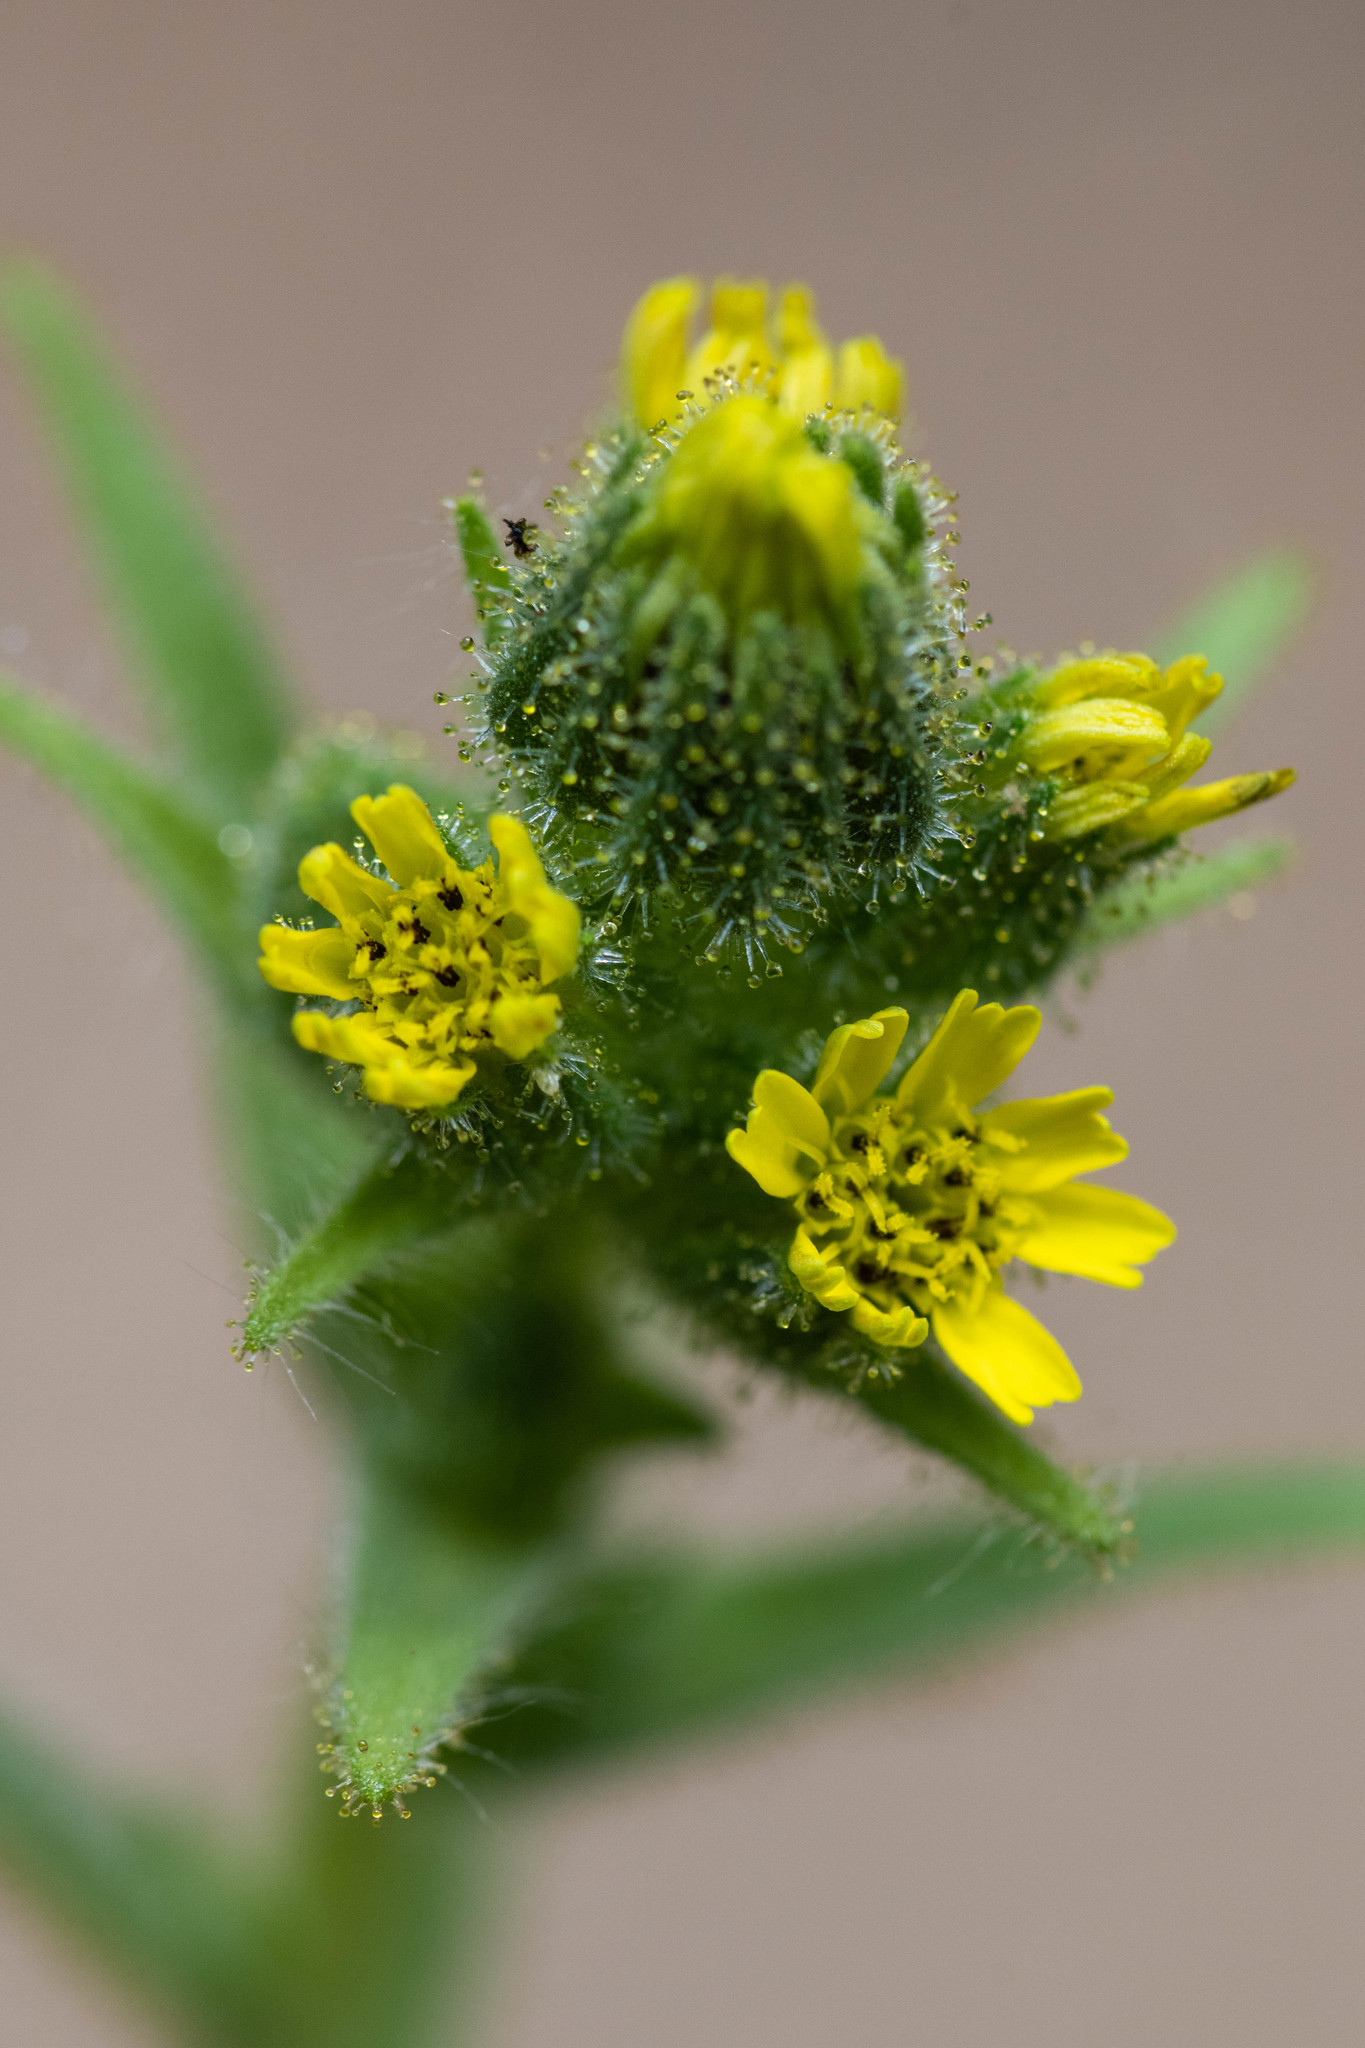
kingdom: Plantae
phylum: Tracheophyta
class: Magnoliopsida
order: Asterales
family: Asteraceae
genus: Madia
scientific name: Madia sativa
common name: Coast tarweed
